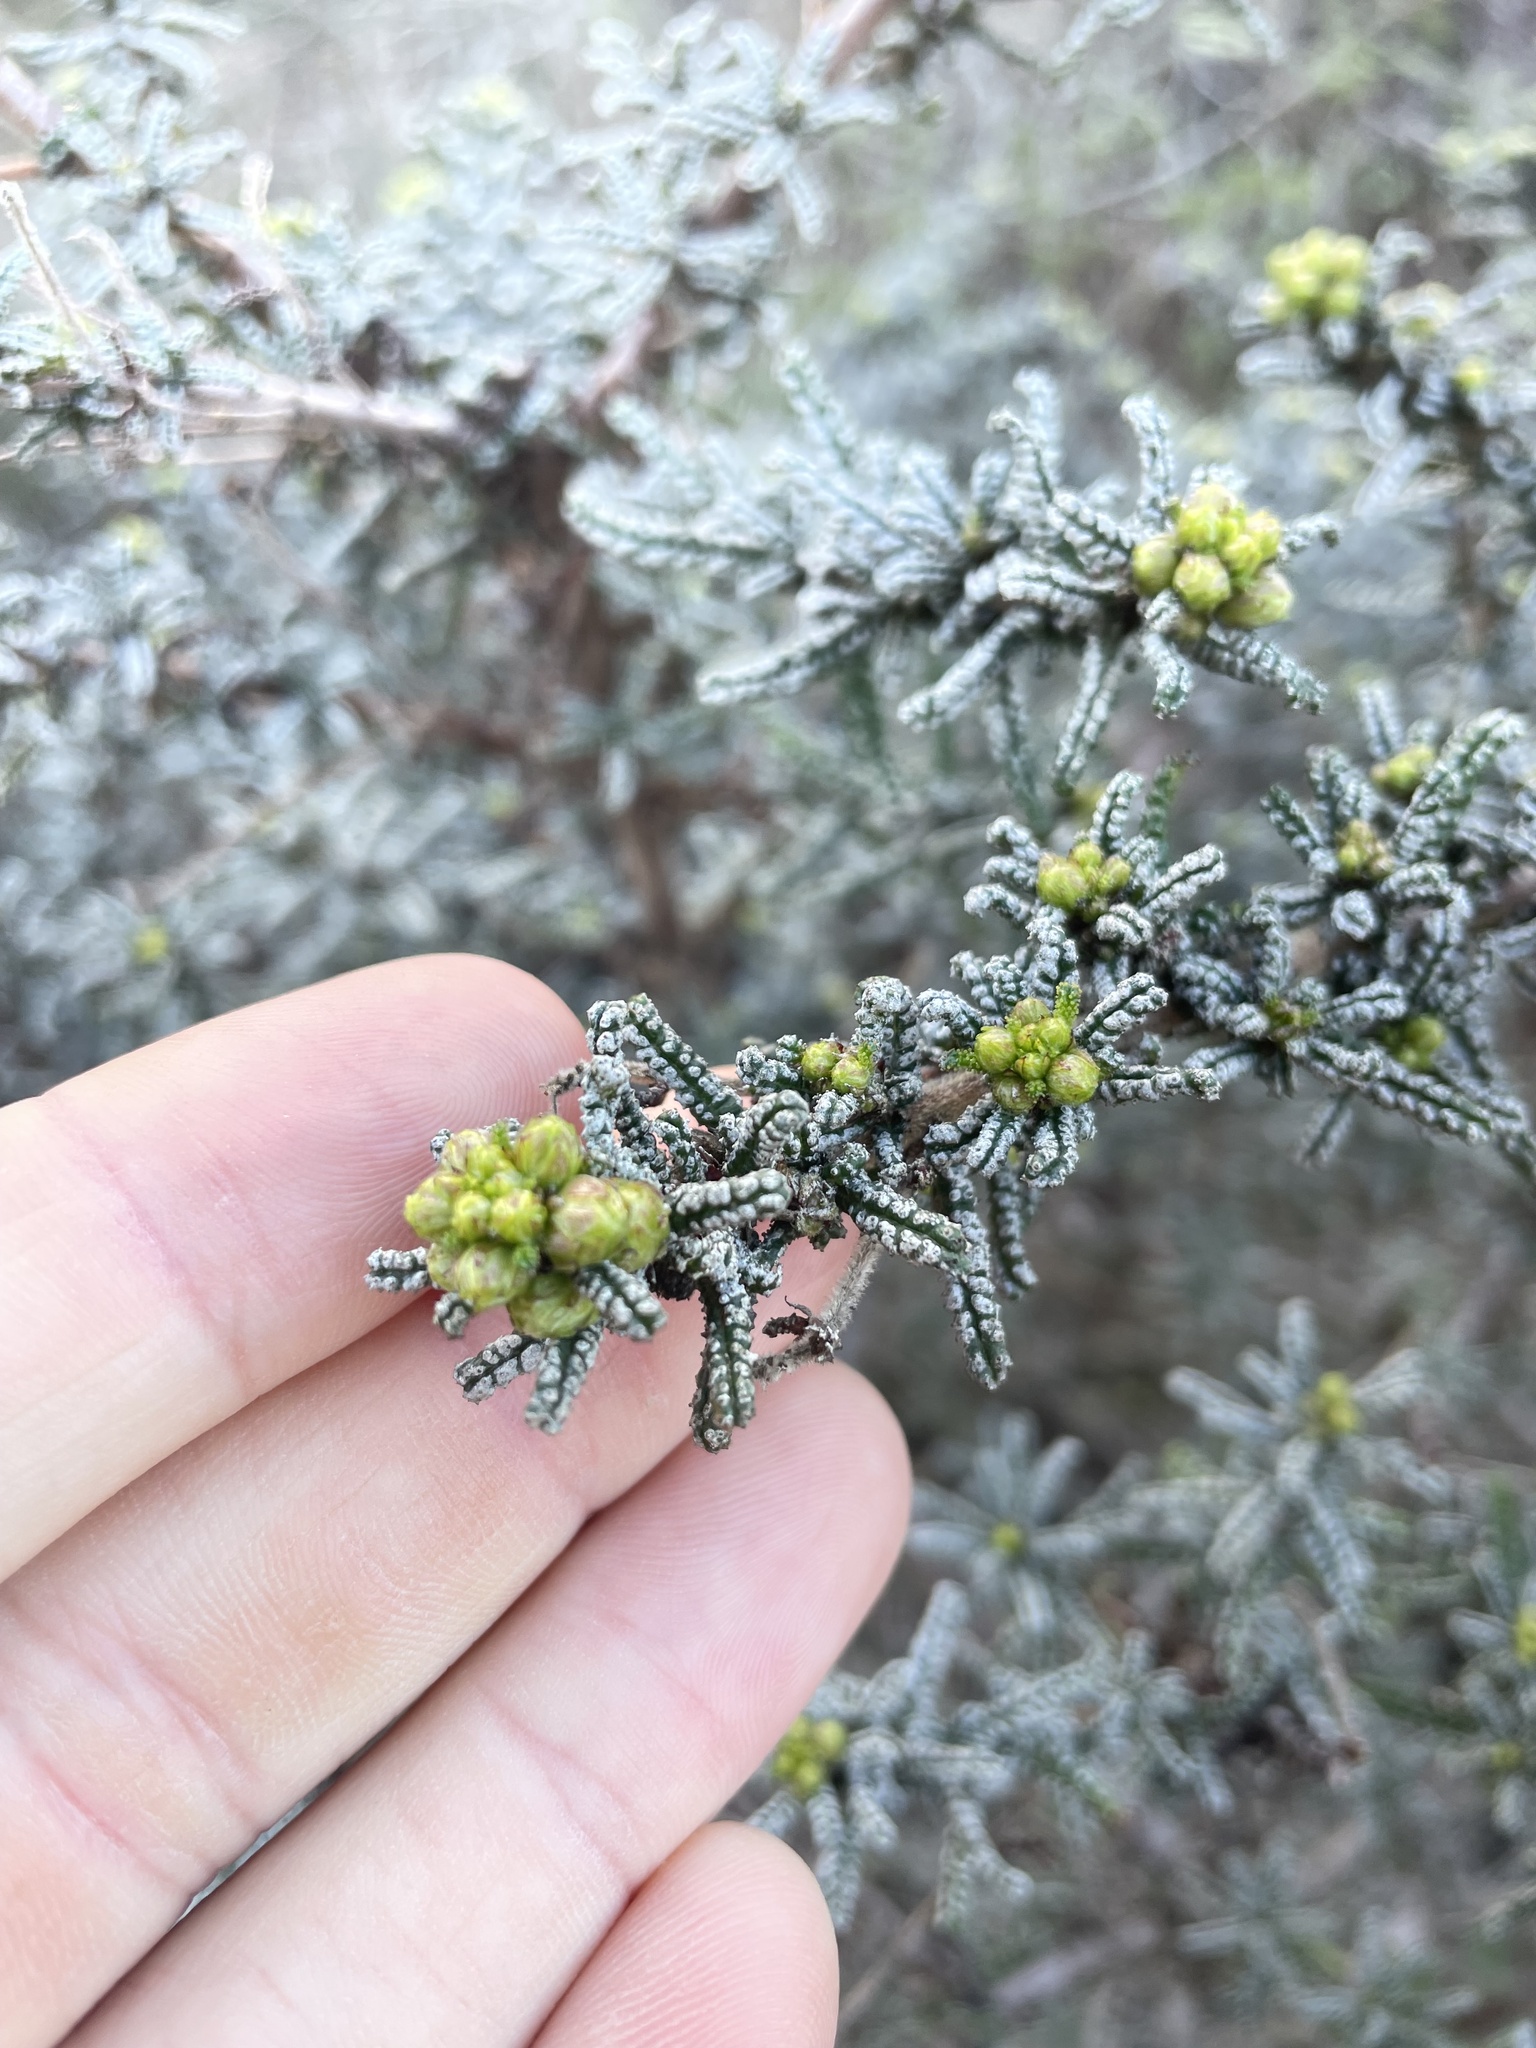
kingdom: Plantae
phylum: Tracheophyta
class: Magnoliopsida
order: Rosales
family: Rhamnaceae
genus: Ceanothus
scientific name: Ceanothus papillosus
